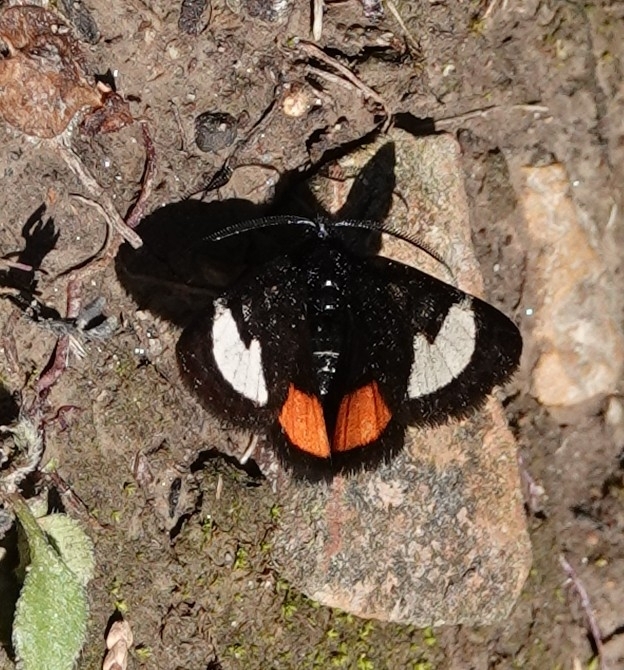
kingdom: Animalia
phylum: Arthropoda
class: Insecta
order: Lepidoptera
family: Noctuidae
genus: Psychomorpha
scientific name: Psychomorpha epimenis
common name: Grapevine epimenis moth
